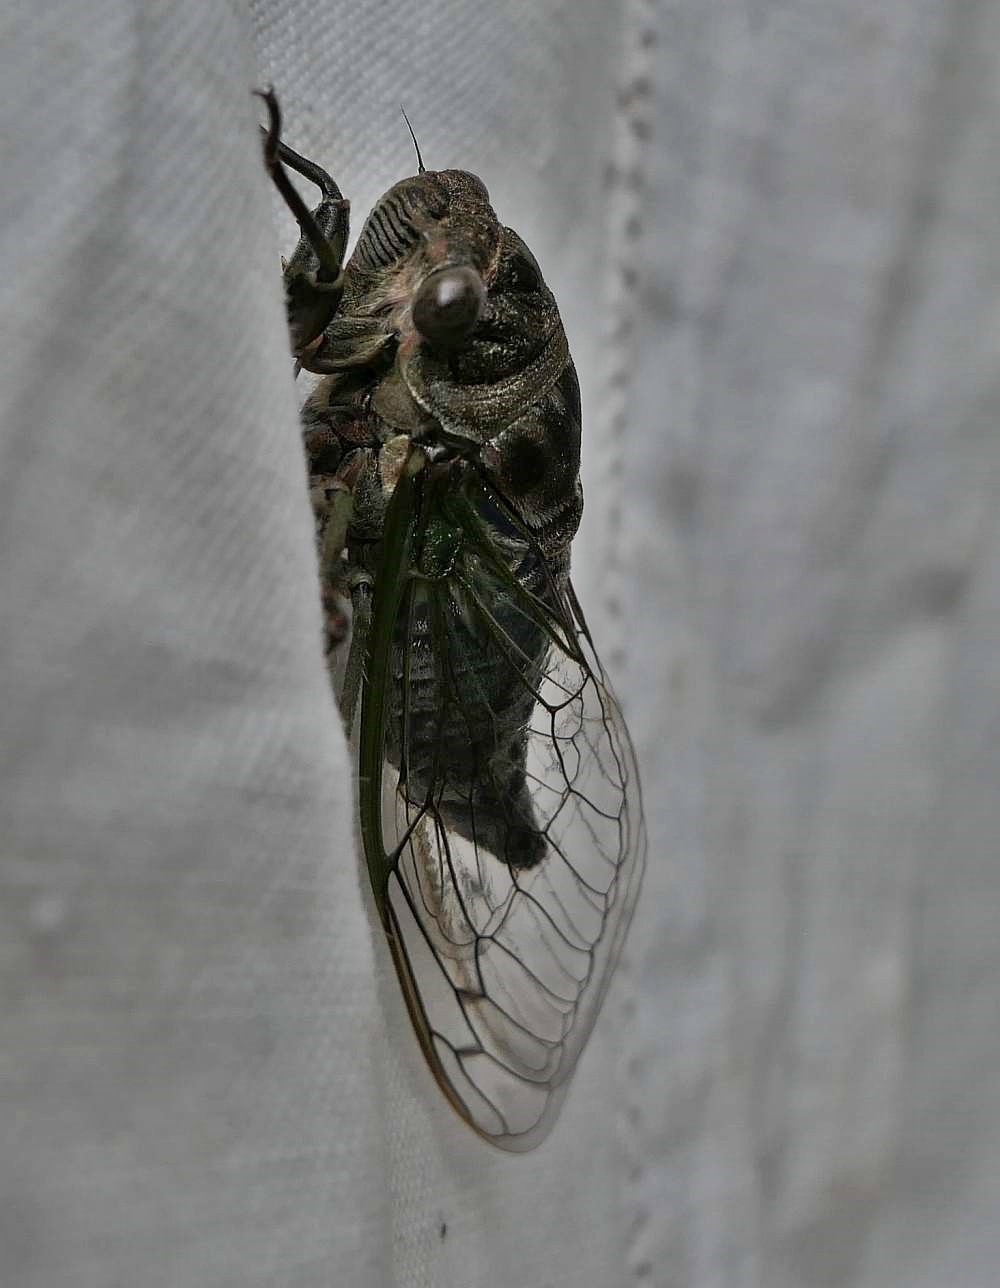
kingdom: Animalia
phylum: Arthropoda
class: Insecta
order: Hemiptera
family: Cicadidae
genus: Neotibicen
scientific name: Neotibicen canicularis
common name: God-day cicada
